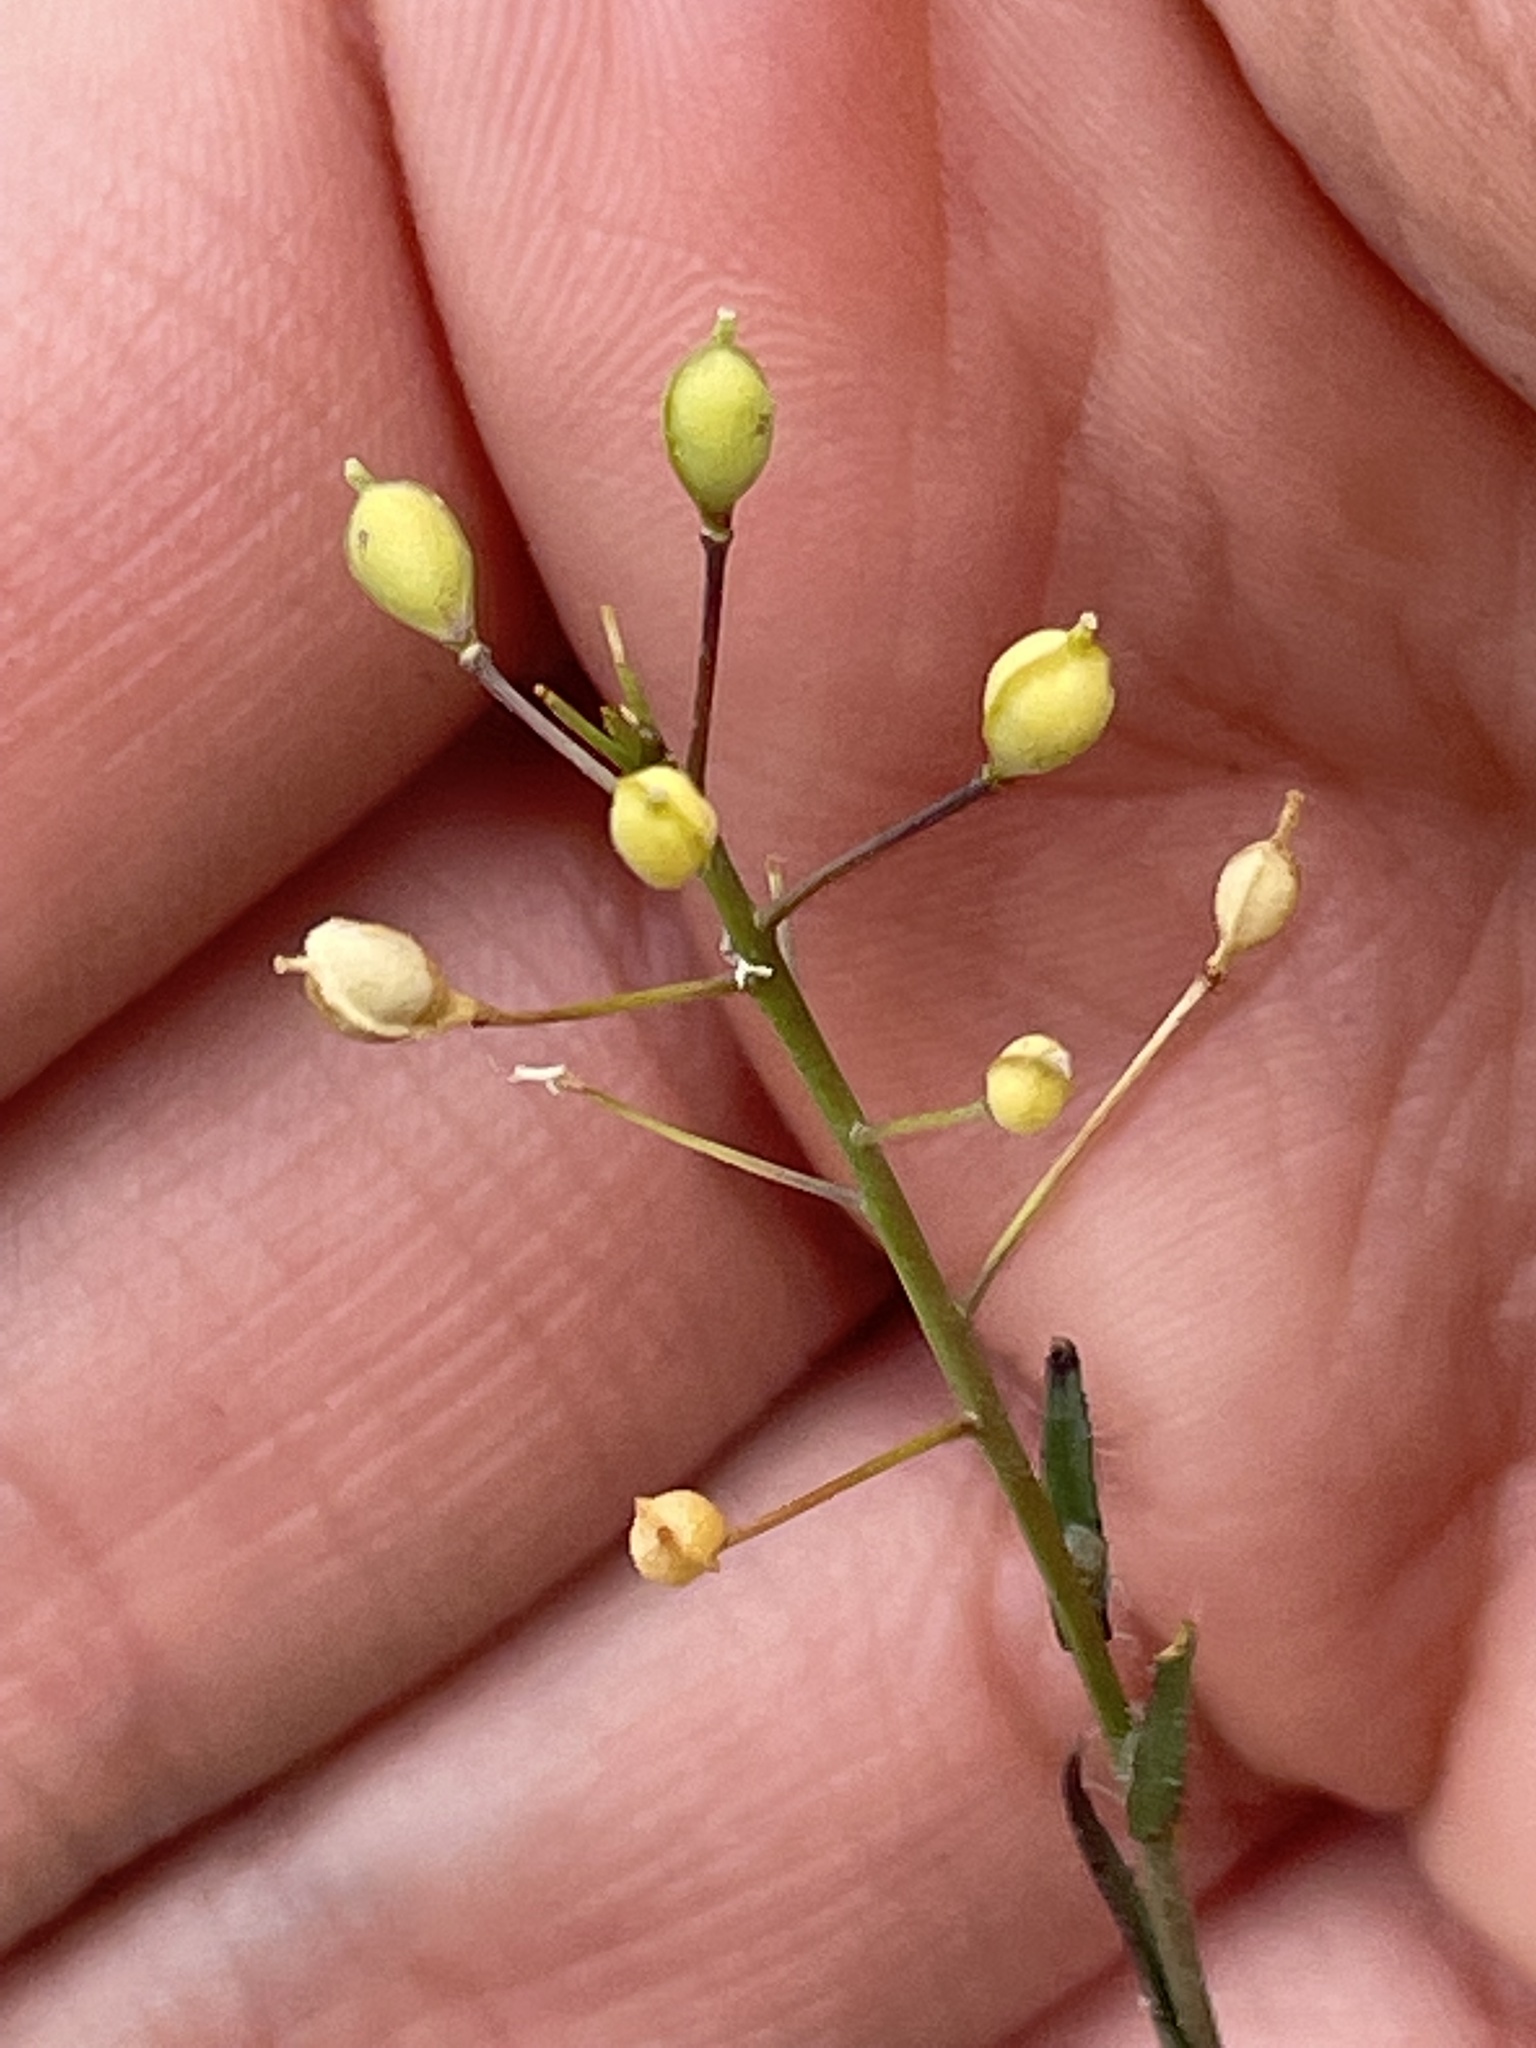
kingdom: Plantae
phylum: Tracheophyta
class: Magnoliopsida
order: Brassicales
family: Brassicaceae
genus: Camelina
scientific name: Camelina microcarpa
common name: Lesser gold-of-pleasure
